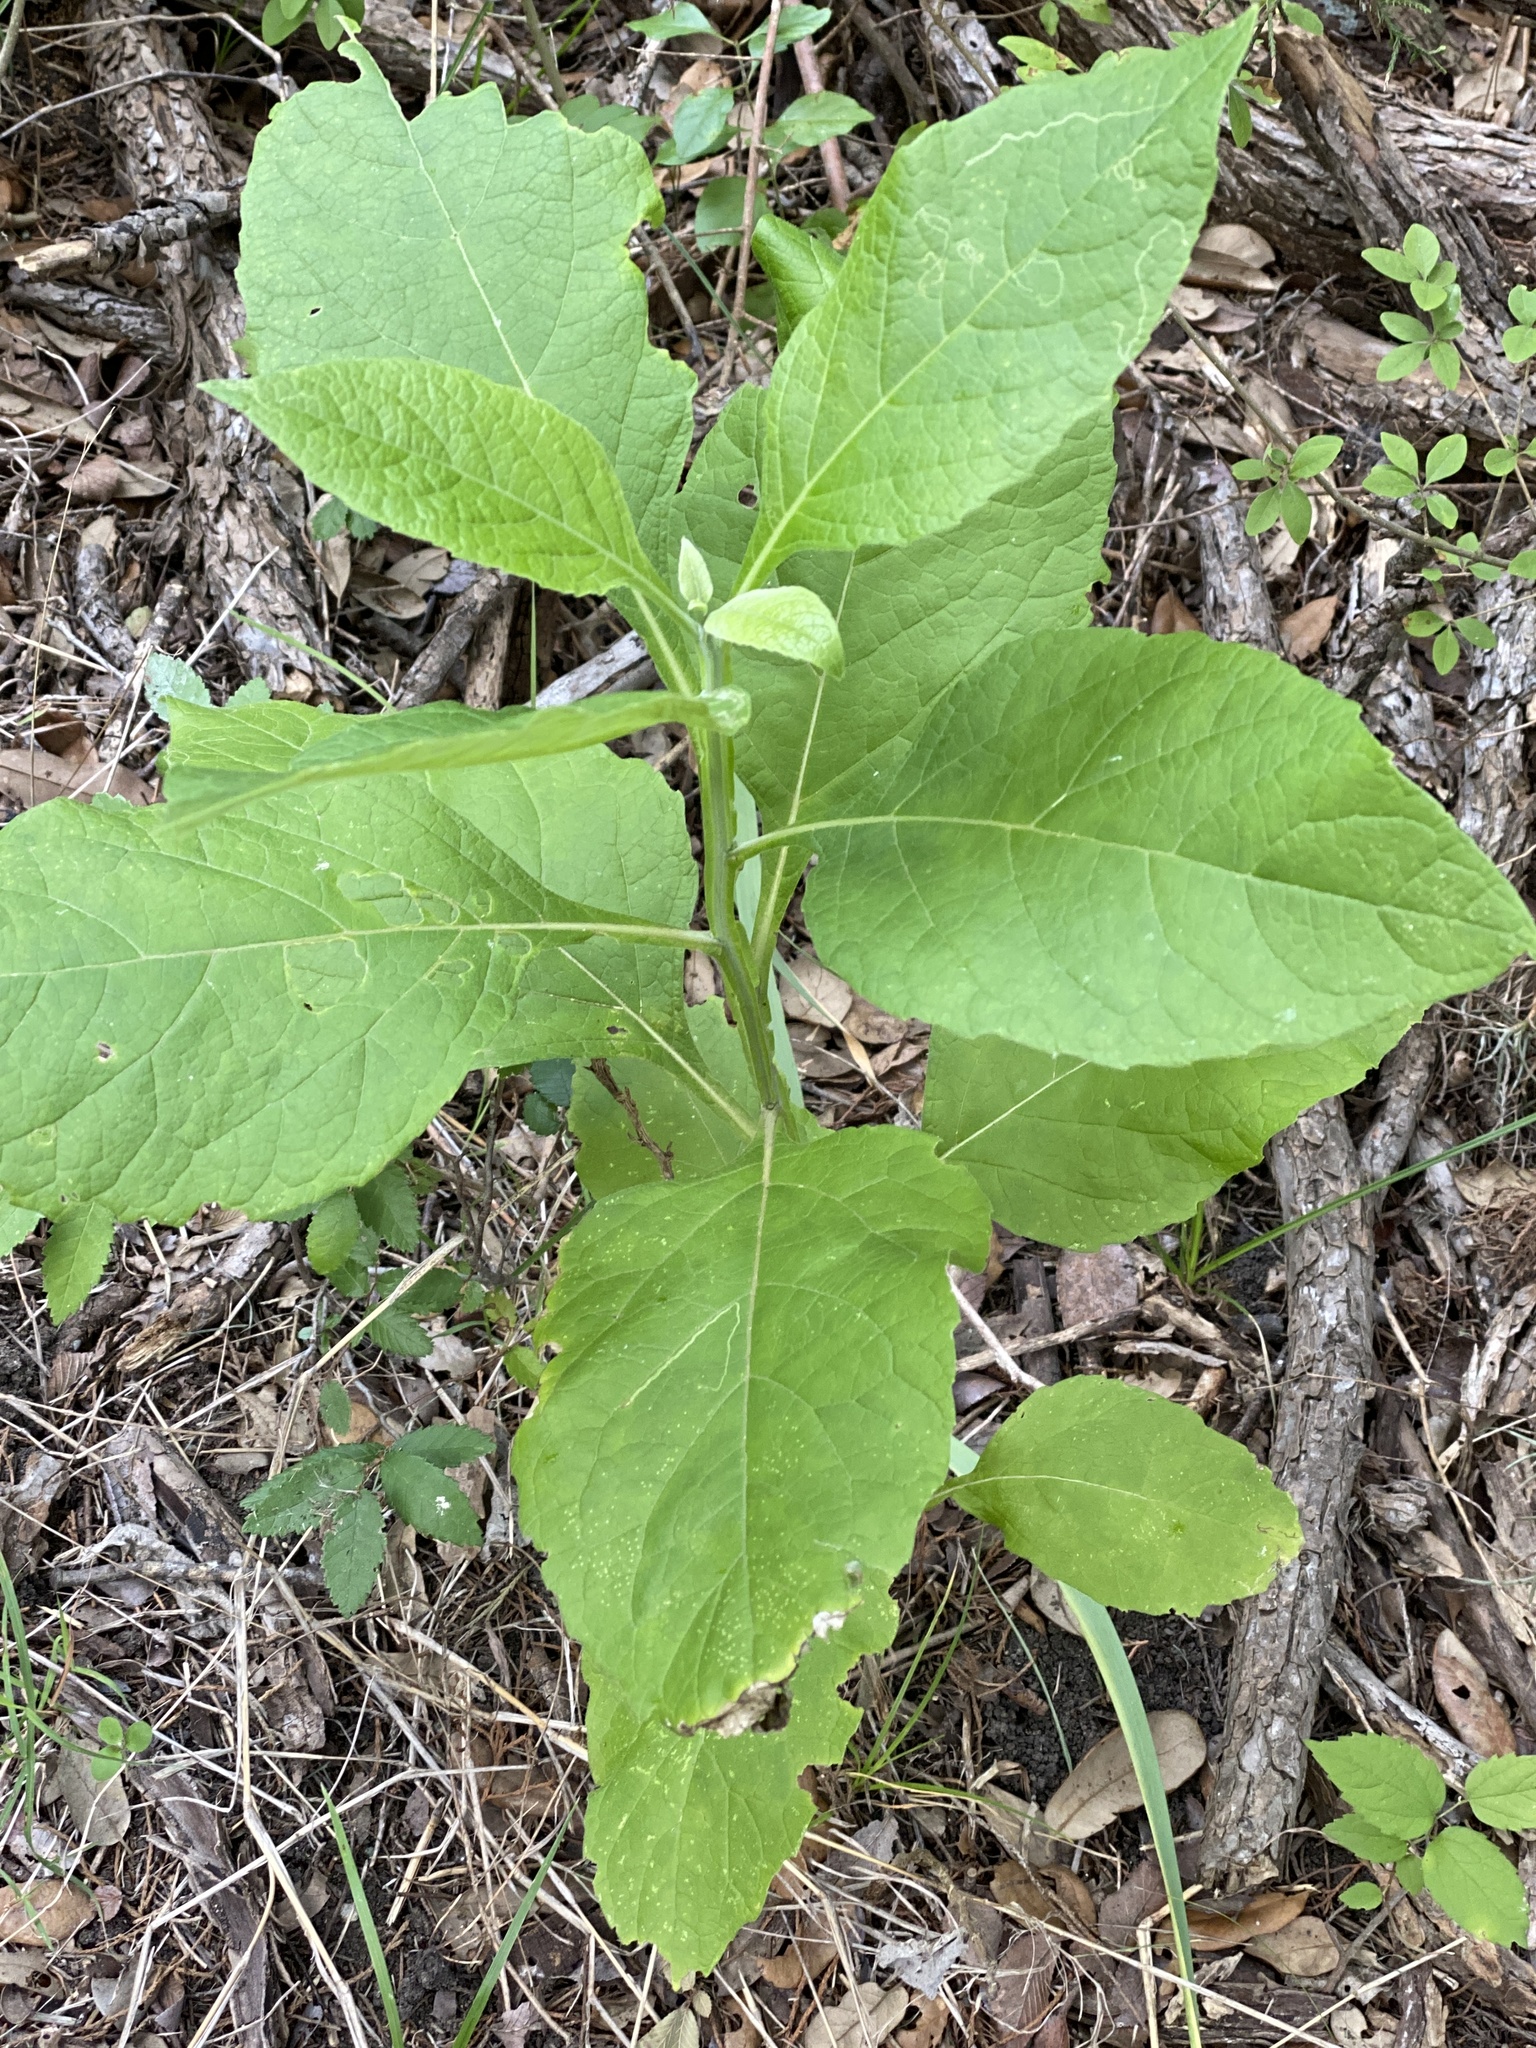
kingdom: Plantae
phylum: Tracheophyta
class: Magnoliopsida
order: Asterales
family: Asteraceae
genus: Verbesina
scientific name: Verbesina virginica
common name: Frostweed
